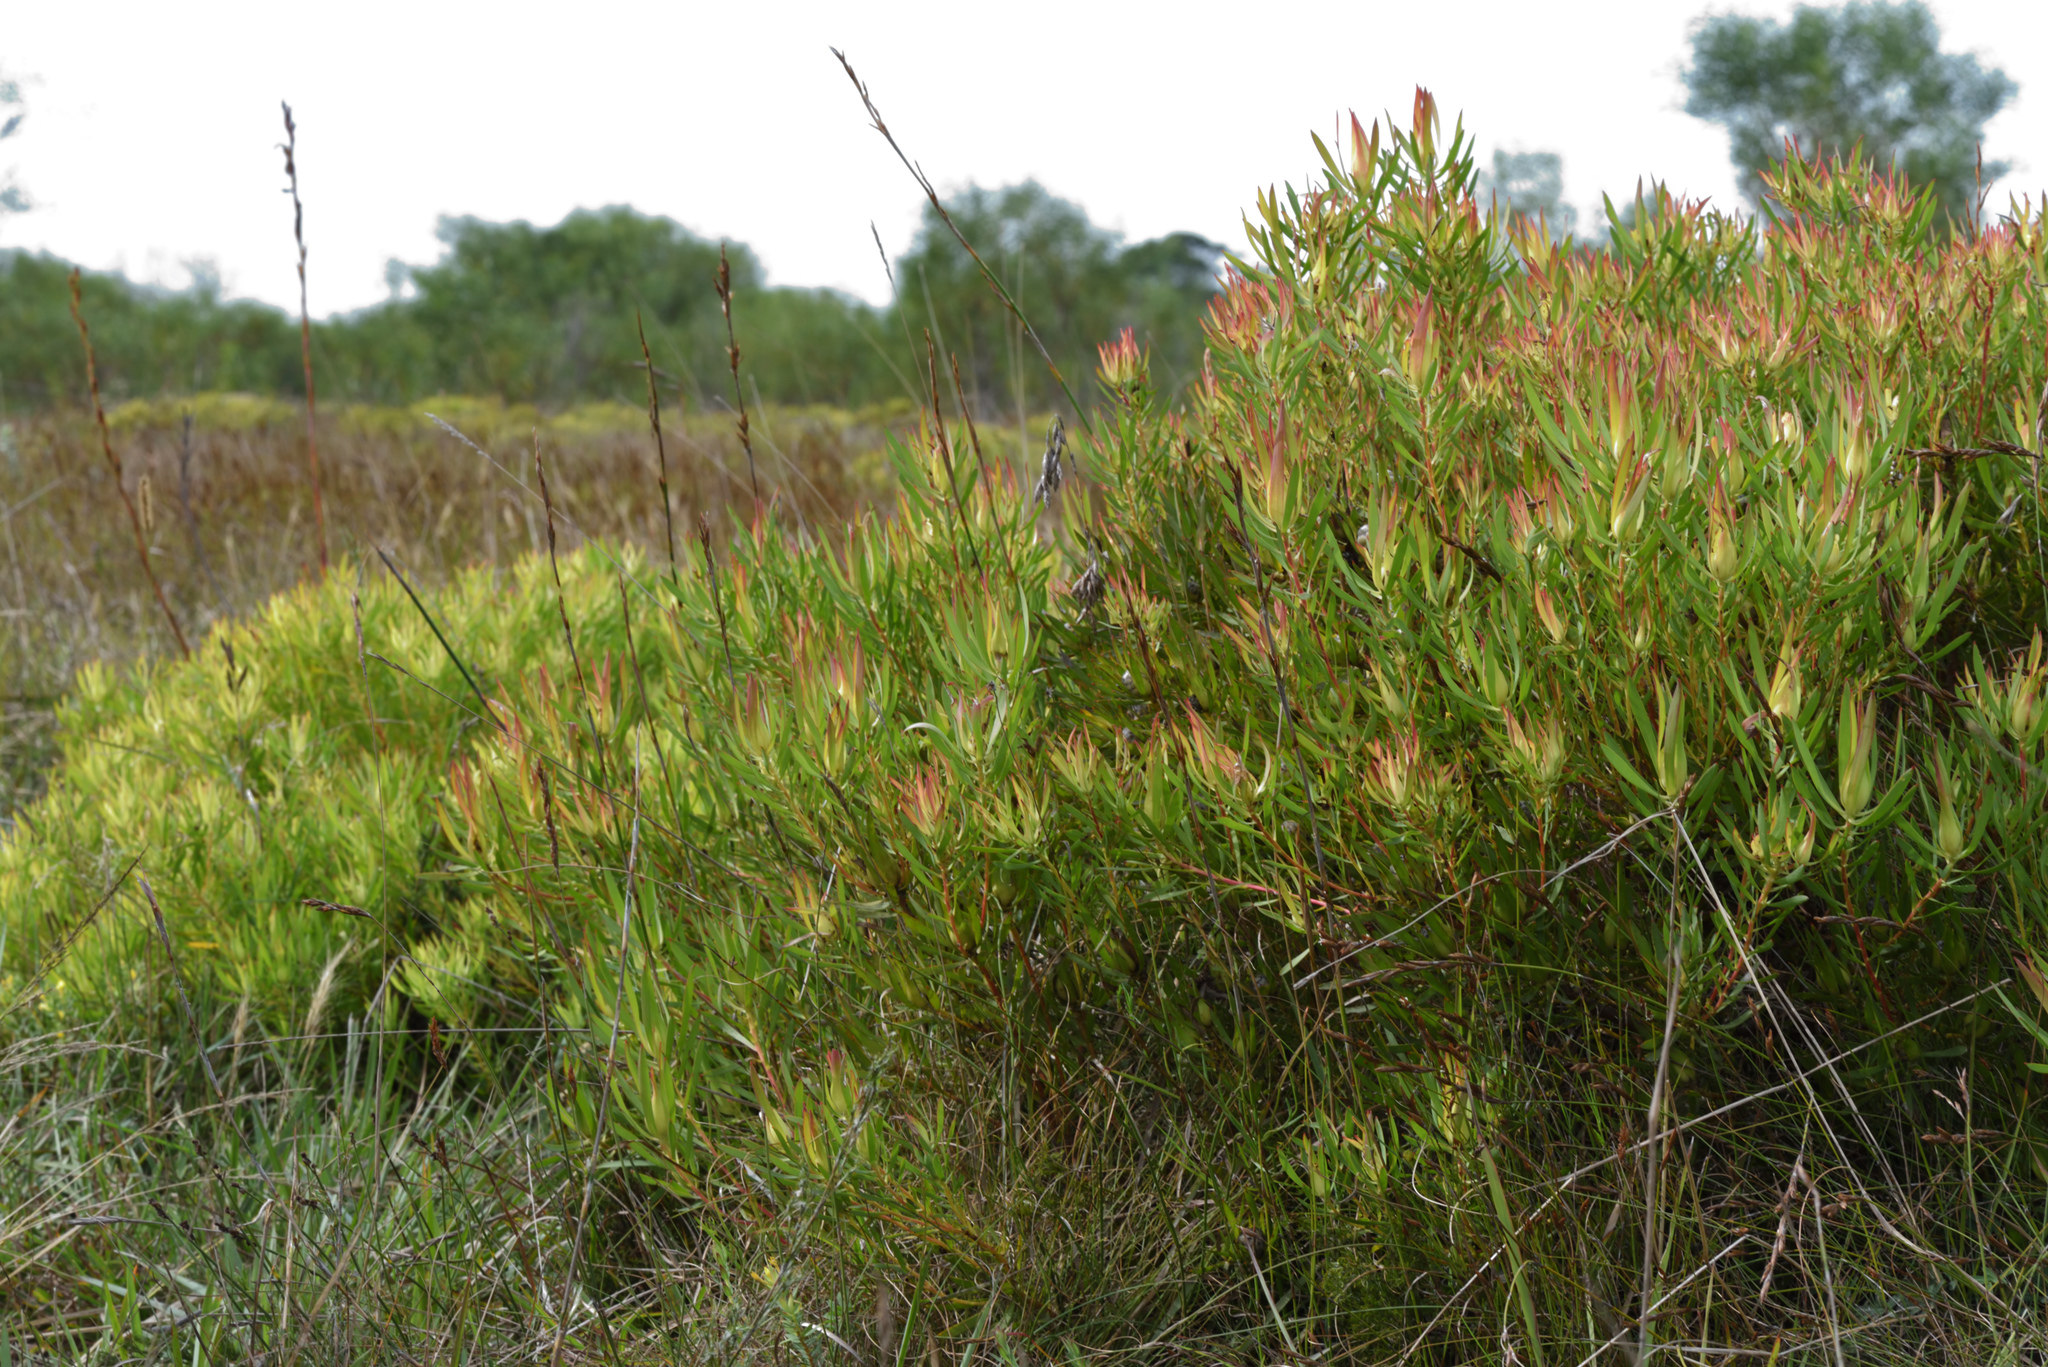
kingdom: Plantae
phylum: Tracheophyta
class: Magnoliopsida
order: Proteales
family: Proteaceae
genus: Leucadendron
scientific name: Leucadendron salignum
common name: Common sunshine conebush
